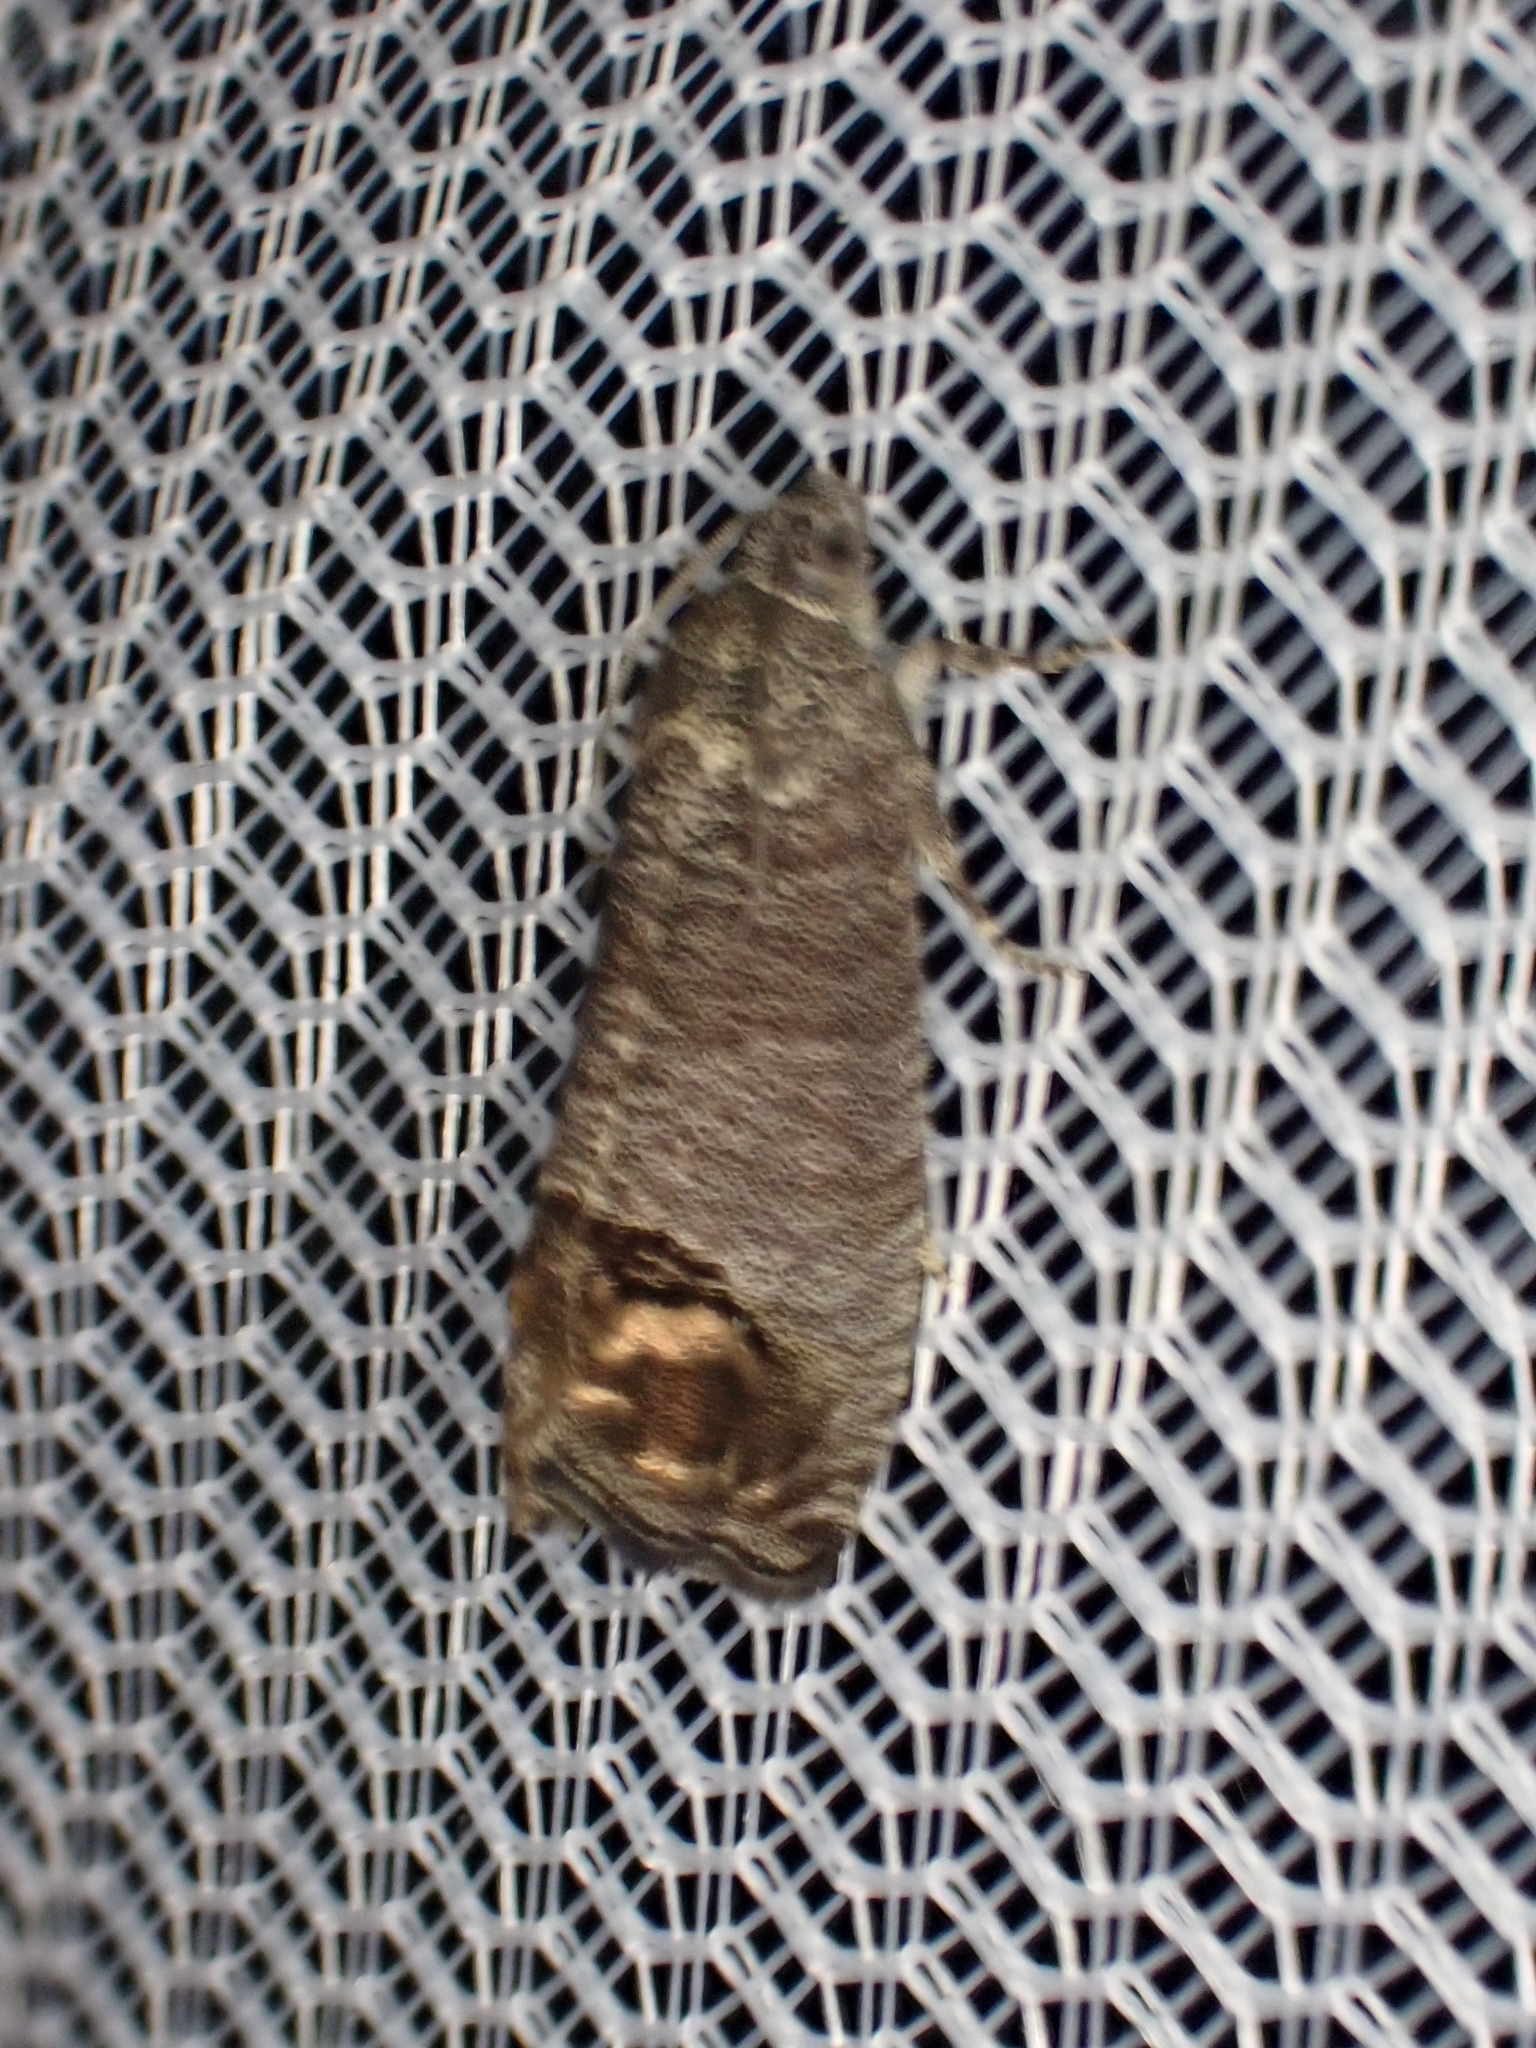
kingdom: Animalia
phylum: Arthropoda
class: Insecta
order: Lepidoptera
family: Tortricidae
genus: Cydia
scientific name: Cydia pomonella
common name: Codling moth
